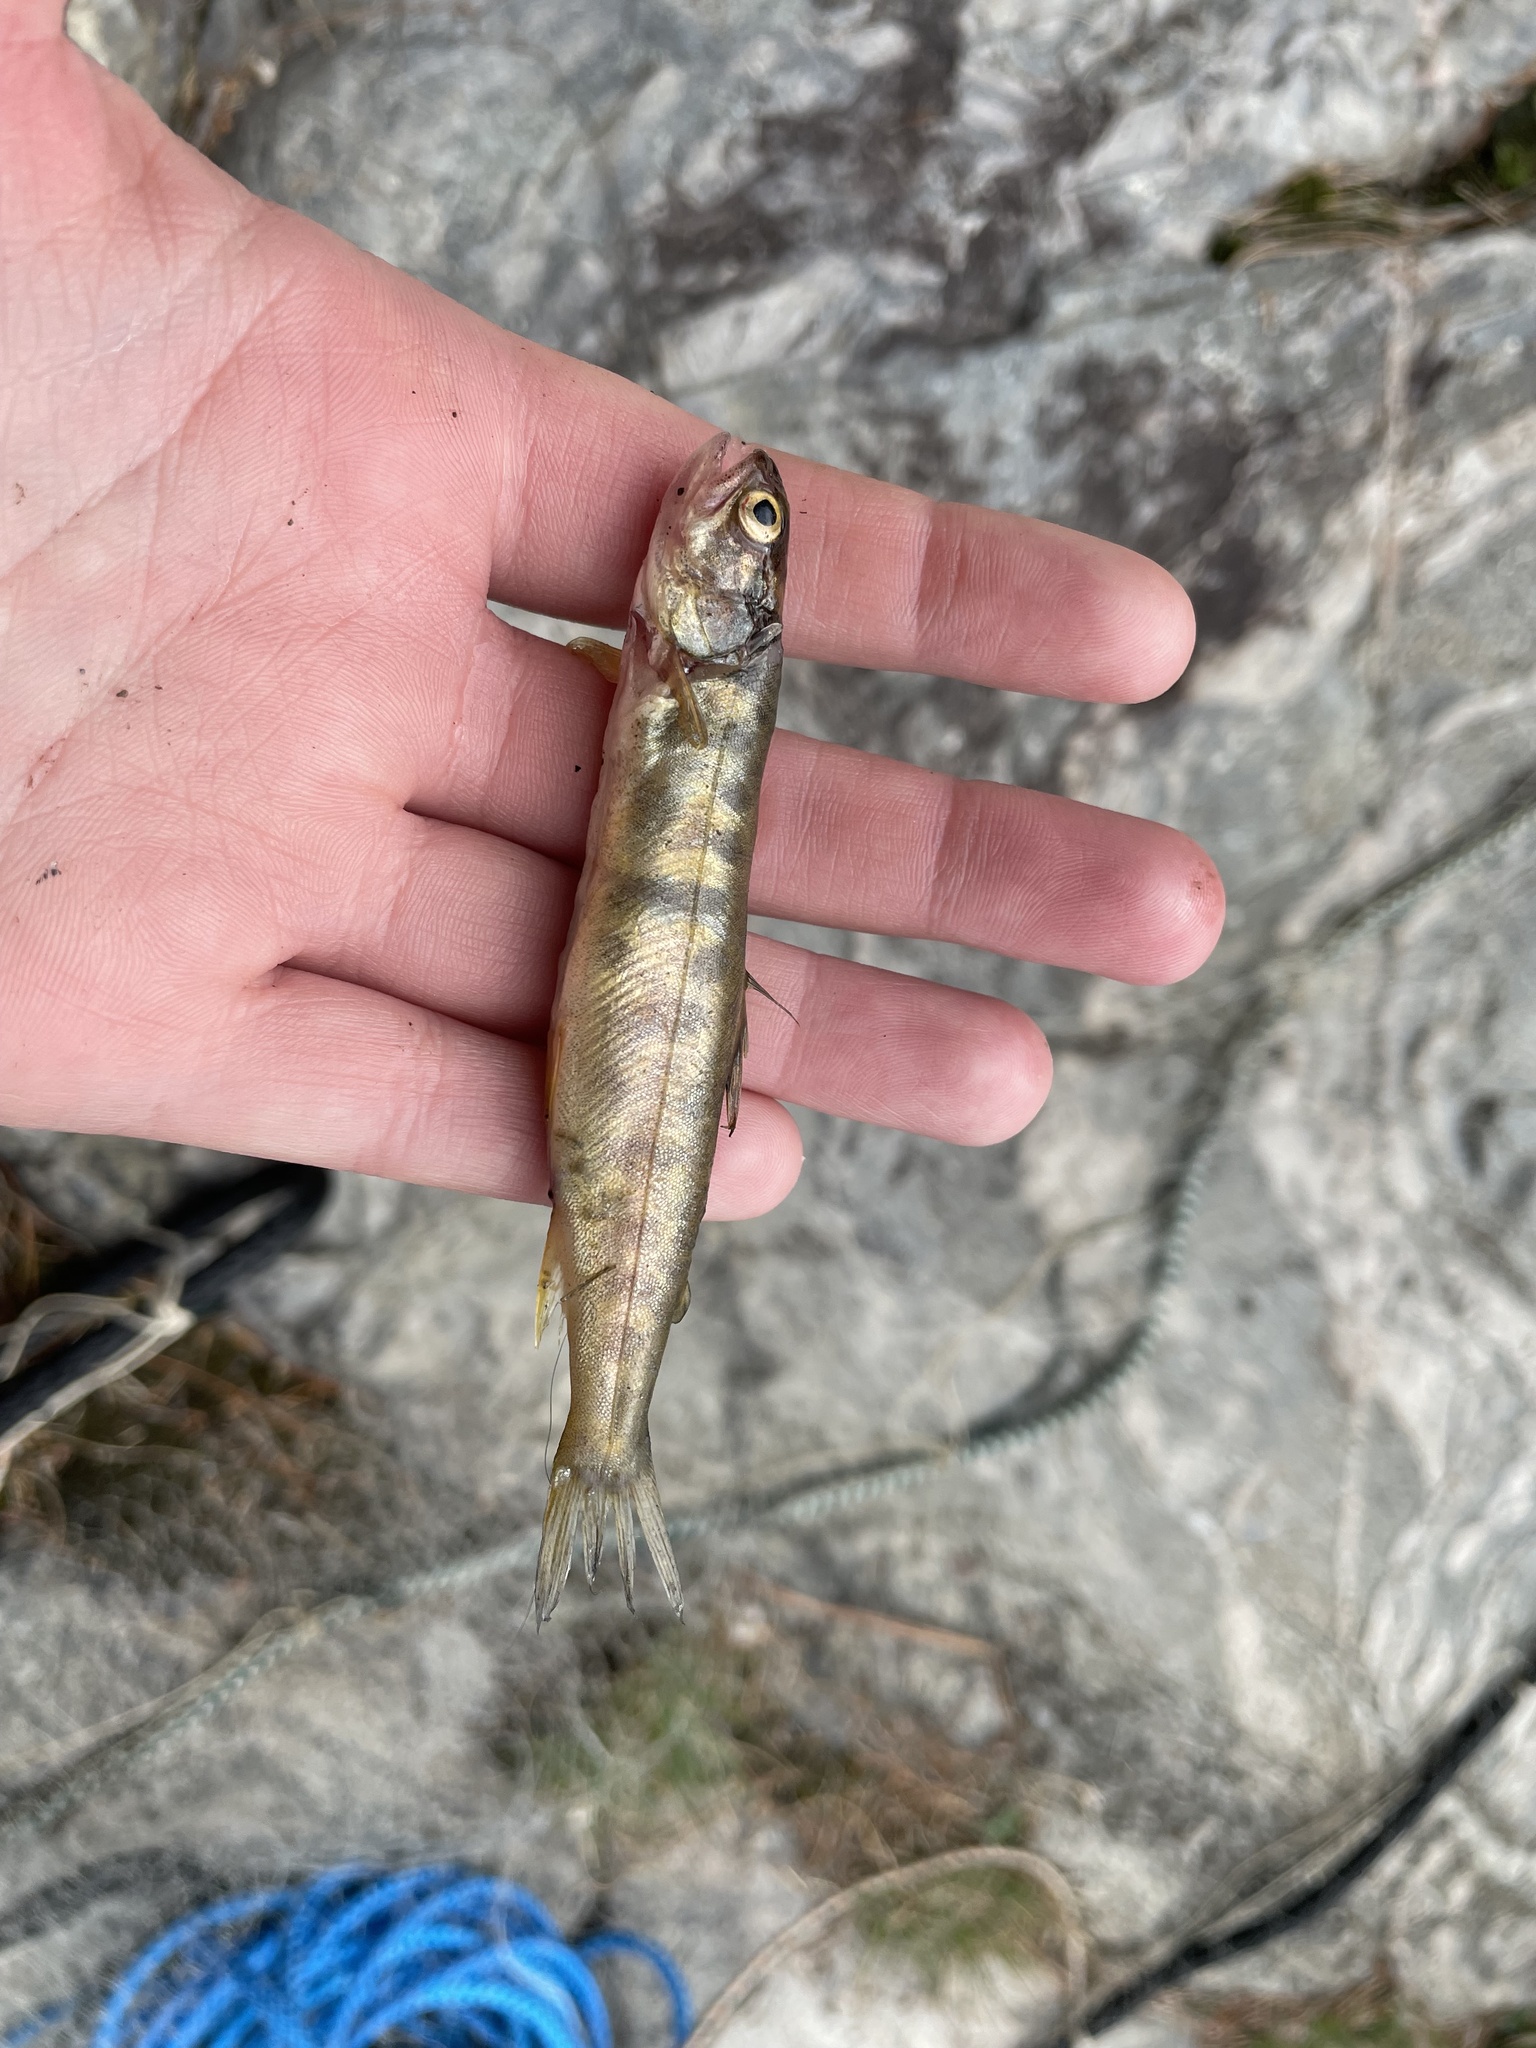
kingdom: Animalia
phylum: Chordata
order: Salmoniformes
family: Salmonidae
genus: Salvelinus
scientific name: Salvelinus namaycush
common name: American lake charr
